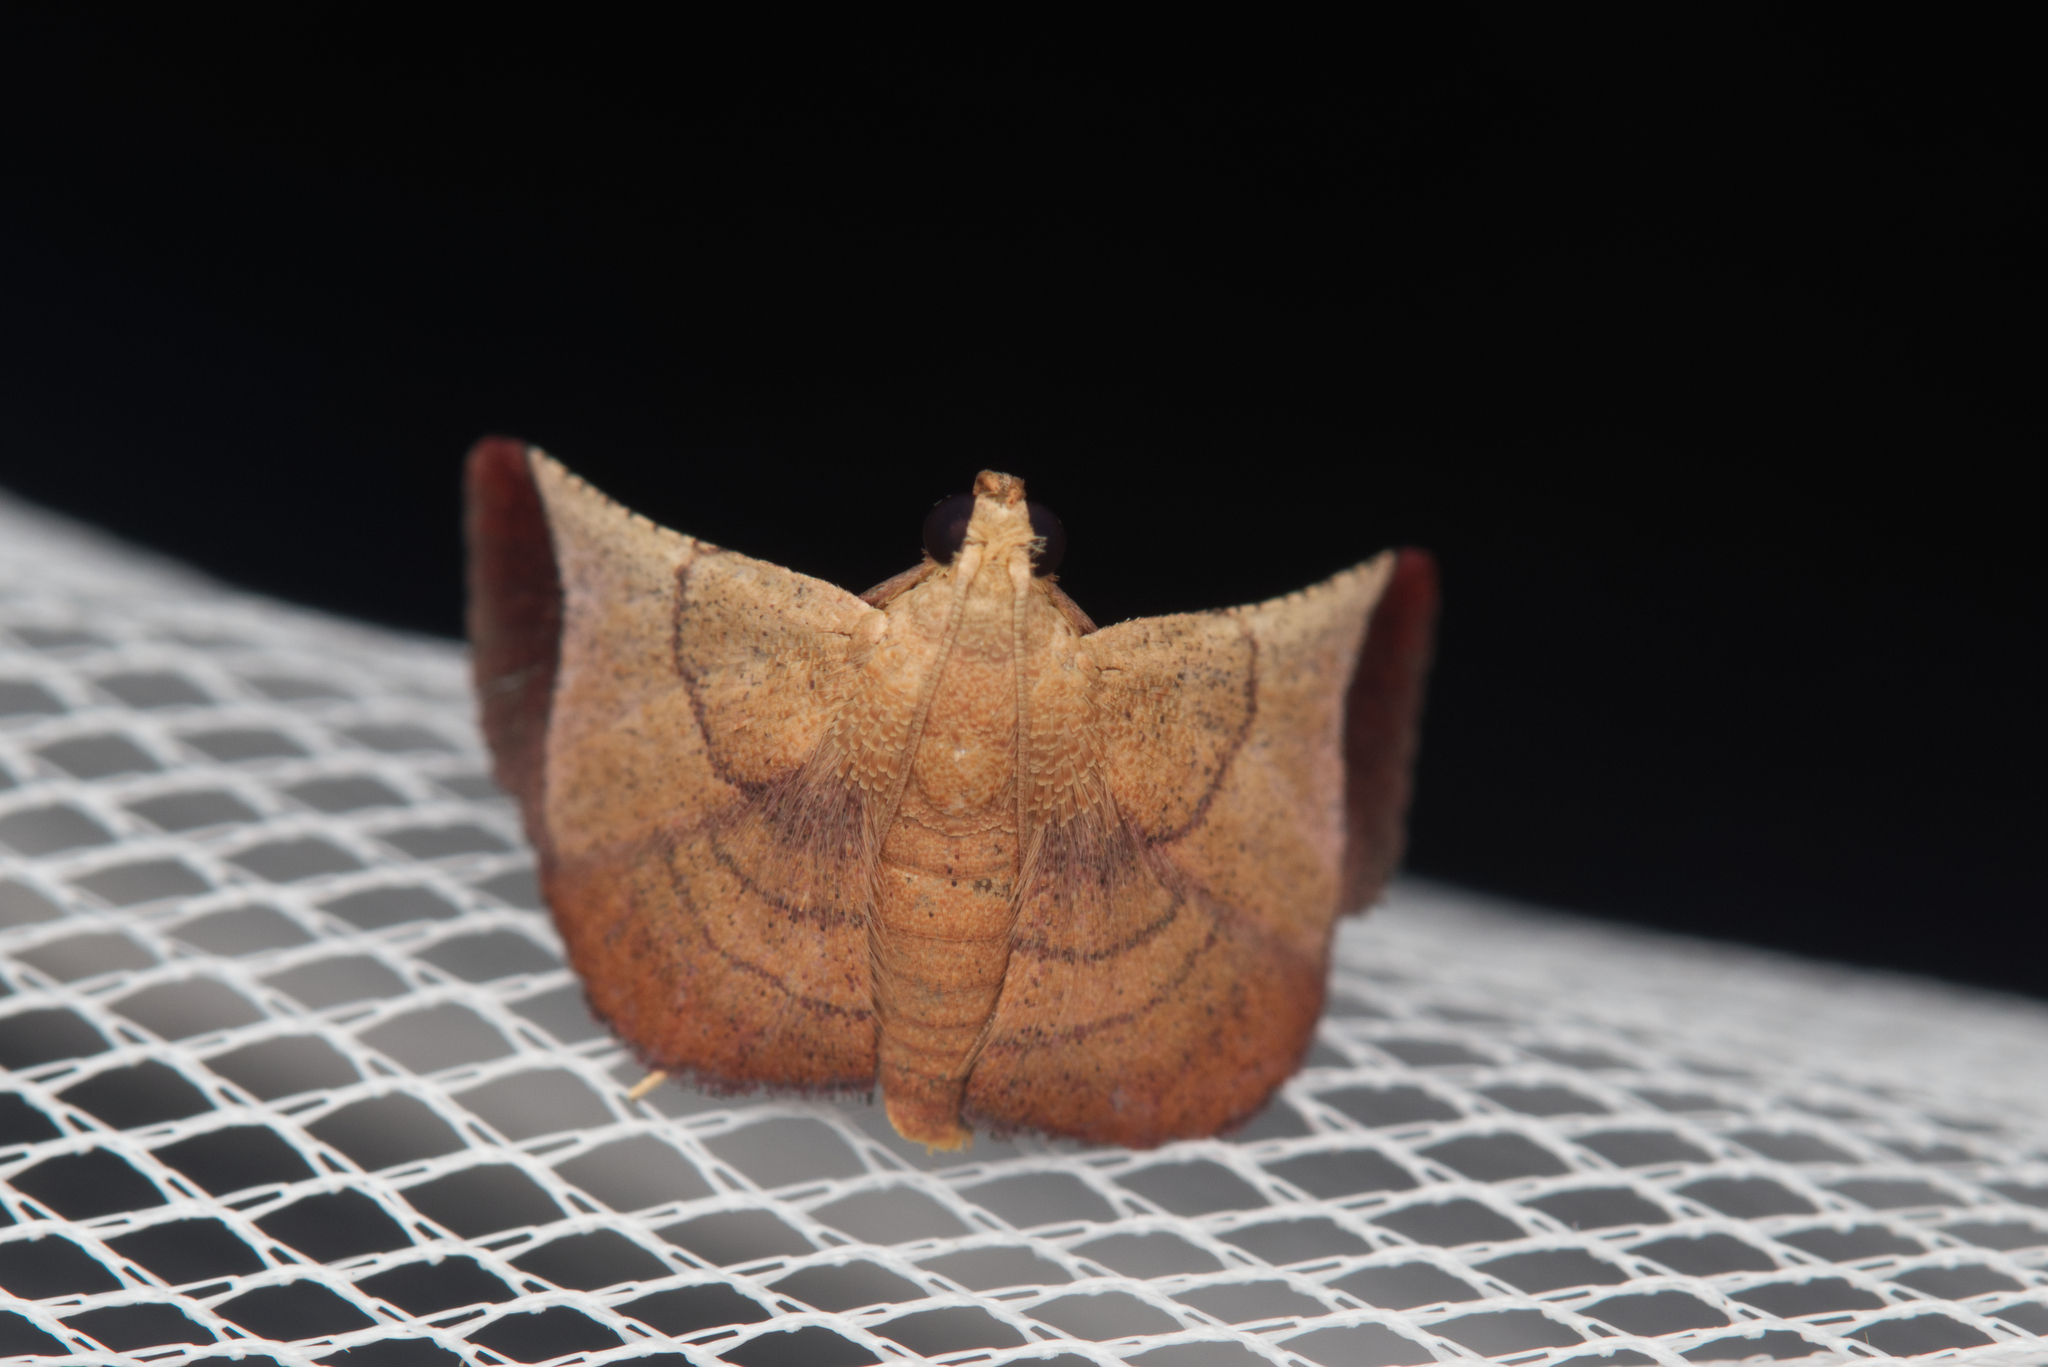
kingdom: Animalia
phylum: Arthropoda
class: Insecta
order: Lepidoptera
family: Pyralidae
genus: Curena
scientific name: Curena externalis
